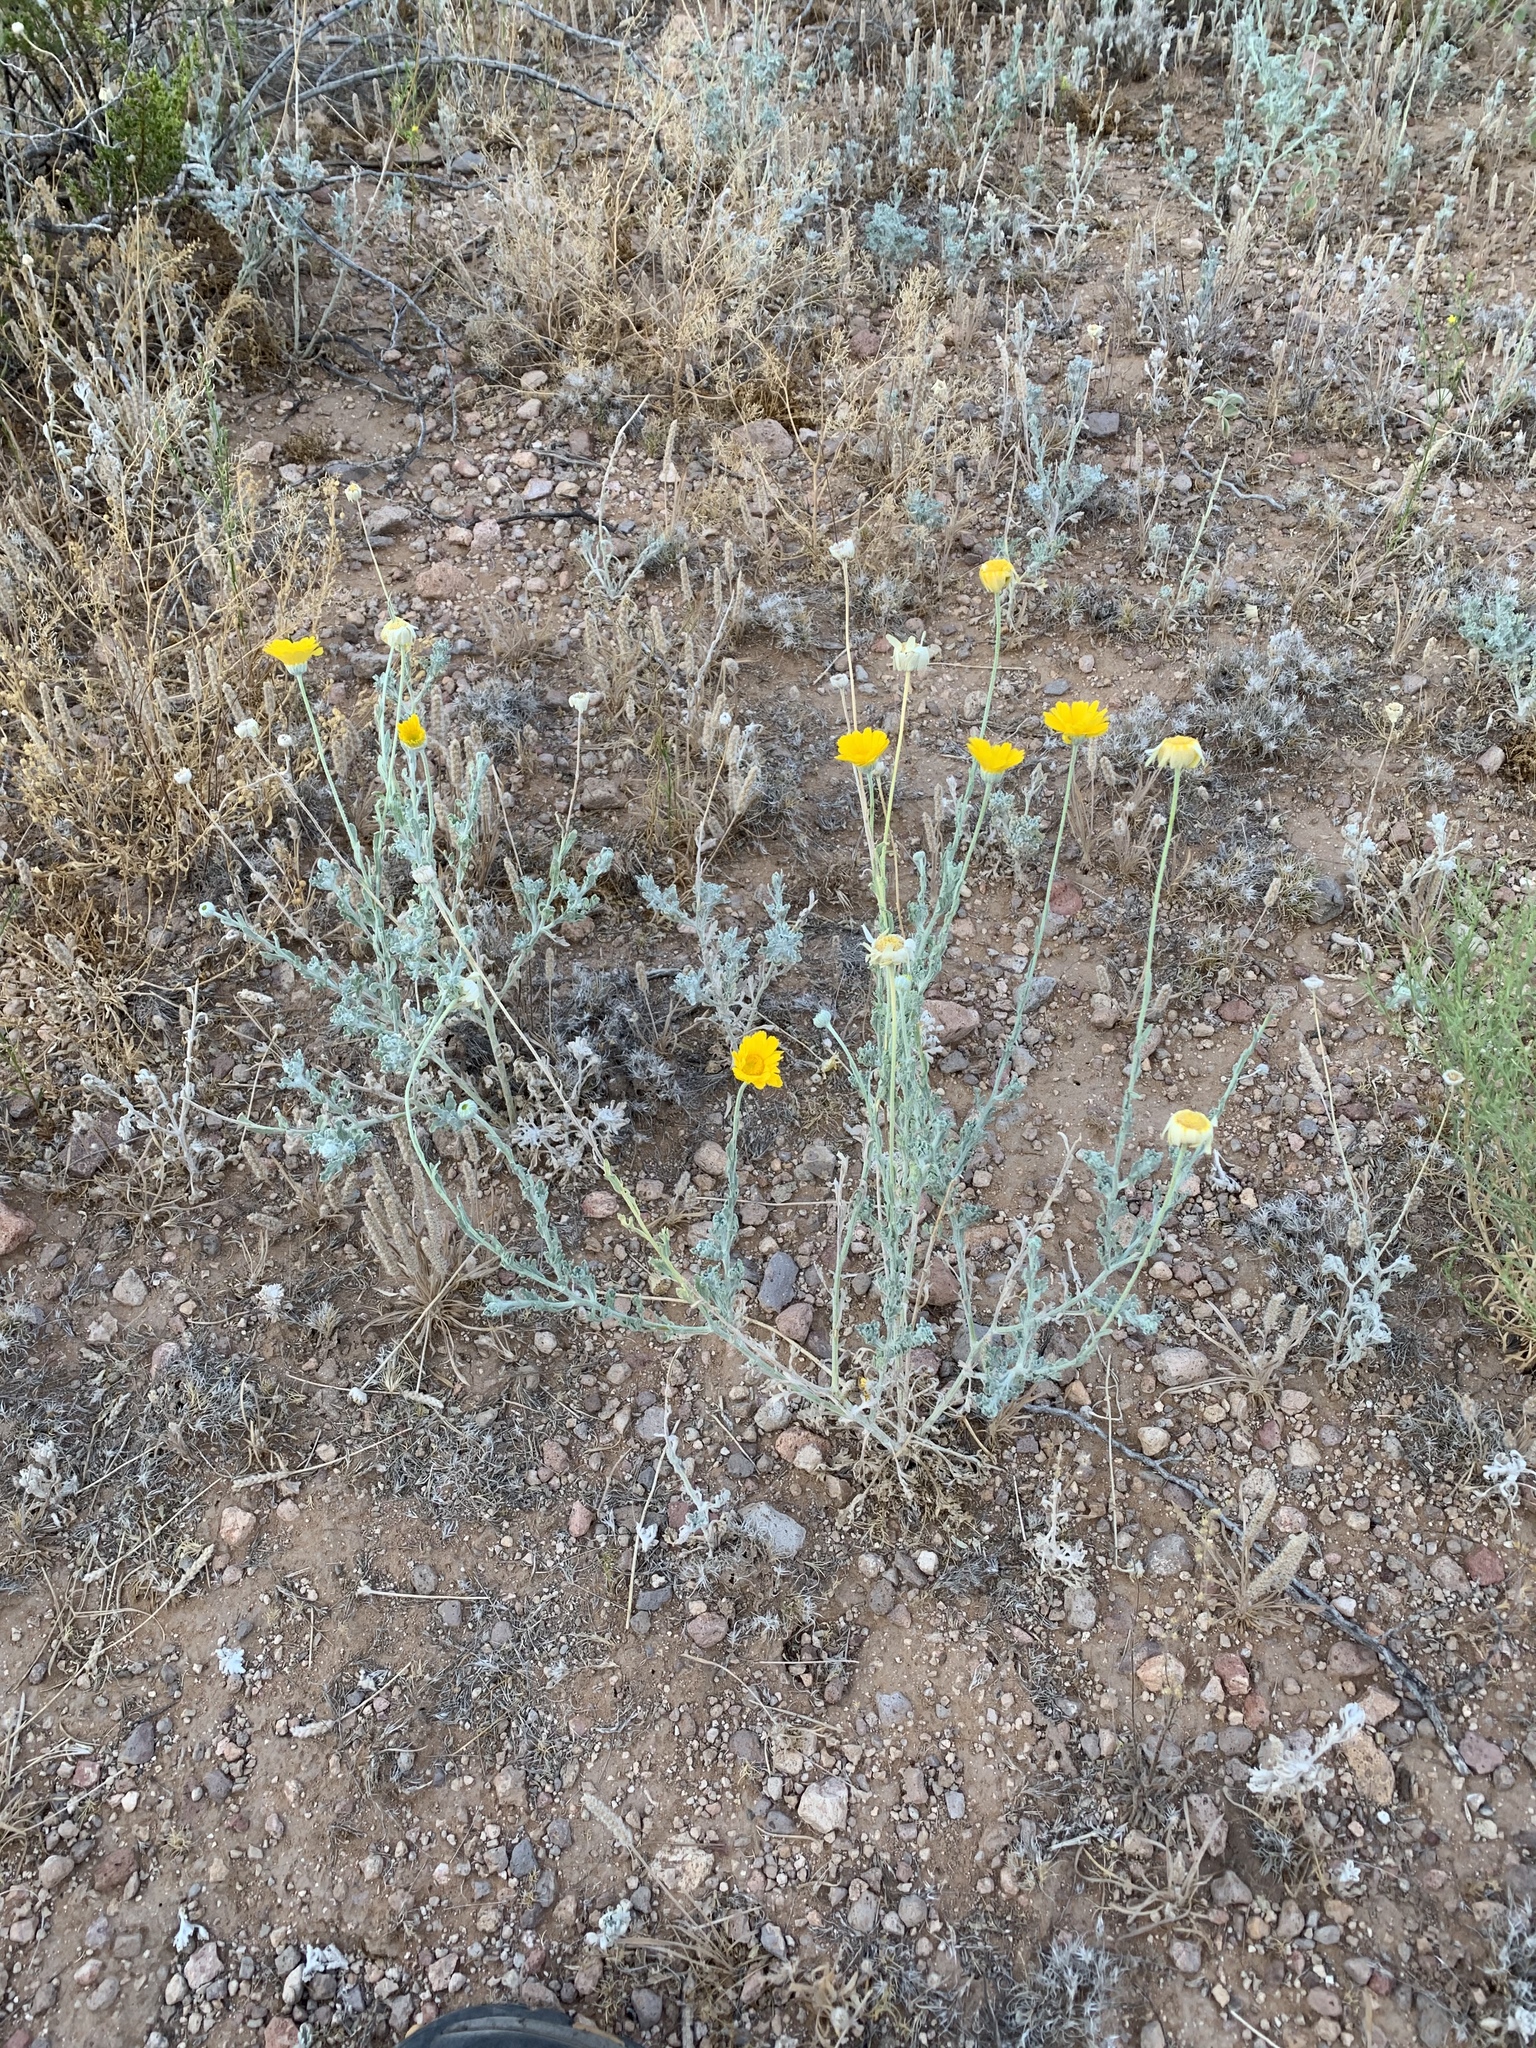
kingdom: Plantae
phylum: Tracheophyta
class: Magnoliopsida
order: Asterales
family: Asteraceae
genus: Baileya
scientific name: Baileya multiradiata
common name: Desert-marigold
